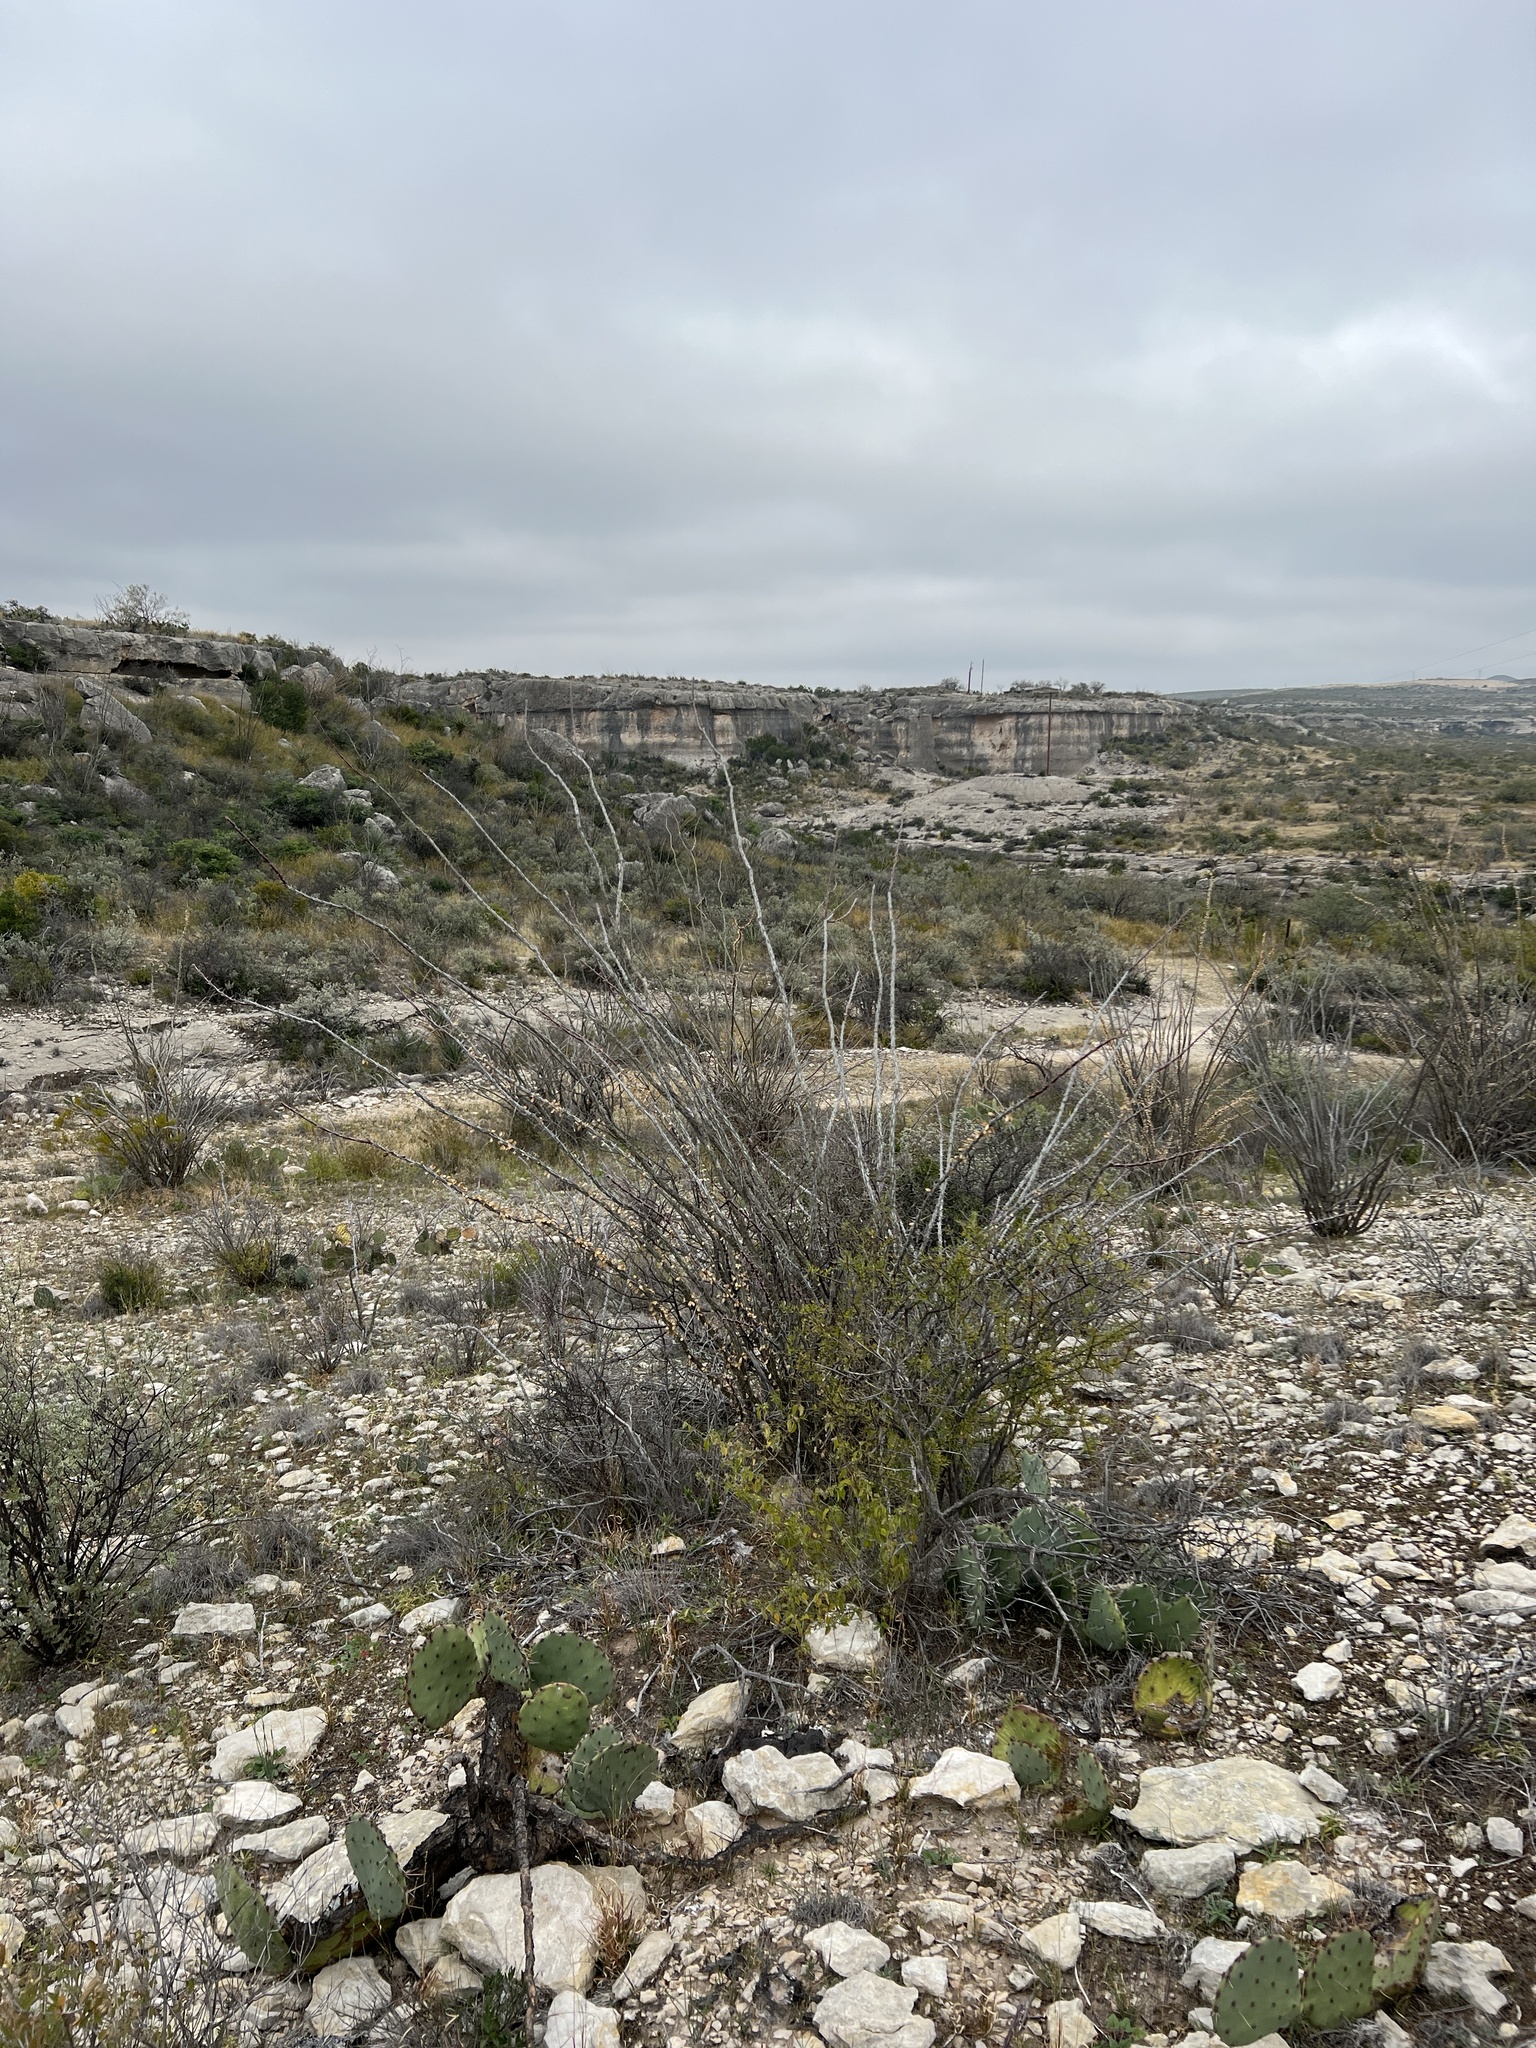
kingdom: Plantae
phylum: Tracheophyta
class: Magnoliopsida
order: Ericales
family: Fouquieriaceae
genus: Fouquieria
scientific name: Fouquieria splendens
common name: Vine-cactus
